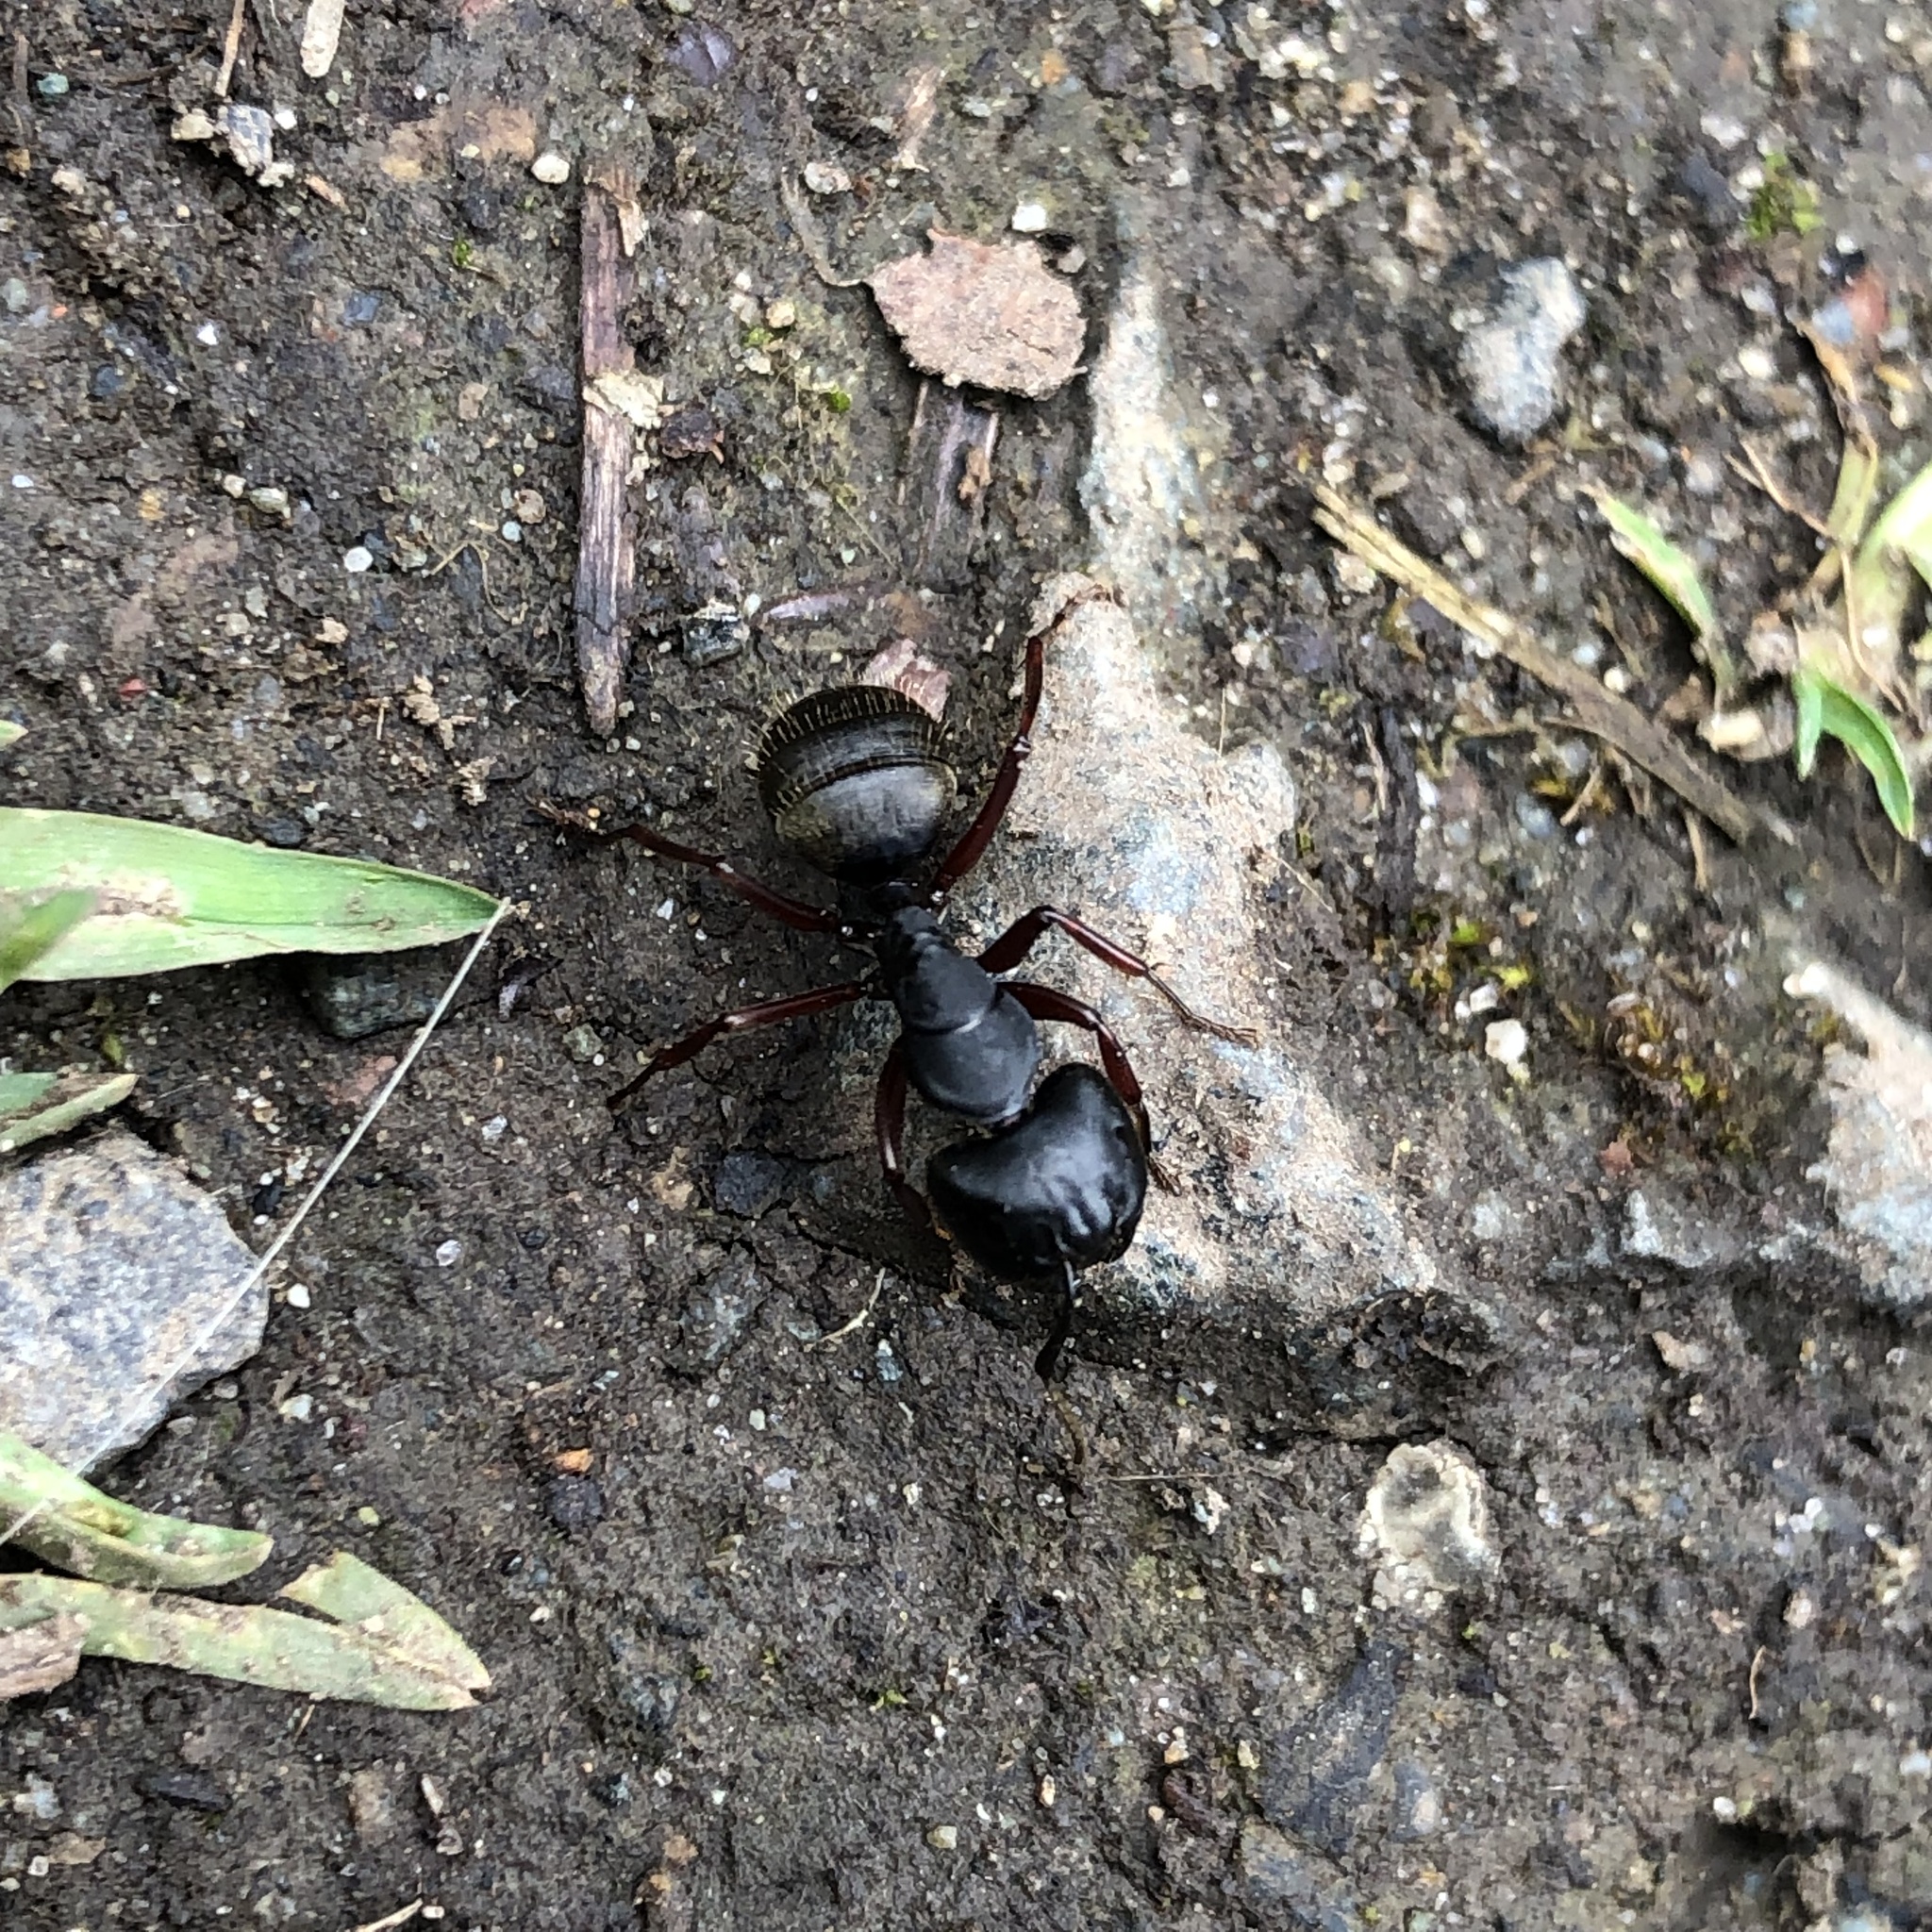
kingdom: Animalia
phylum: Arthropoda
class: Insecta
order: Hymenoptera
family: Formicidae
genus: Camponotus
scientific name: Camponotus modoc
